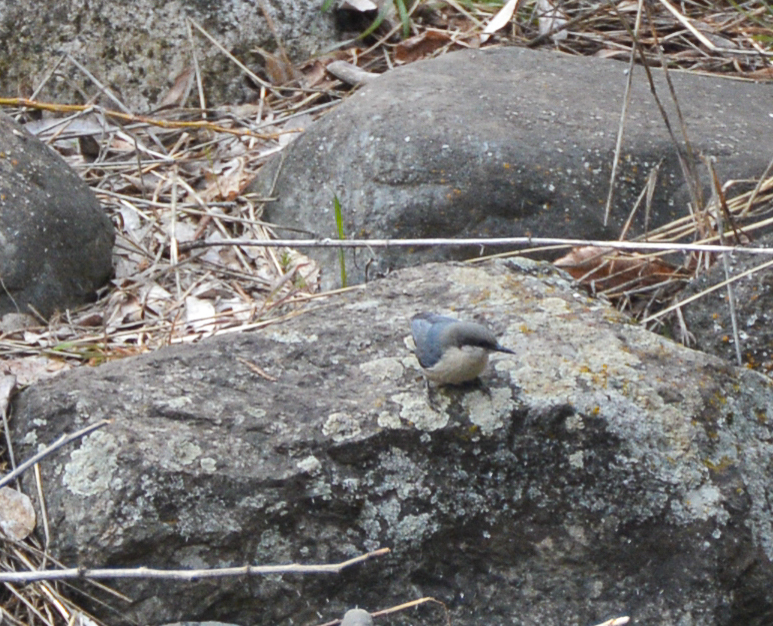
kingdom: Animalia
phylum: Chordata
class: Aves
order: Passeriformes
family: Sittidae
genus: Sitta
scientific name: Sitta pygmaea
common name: Pygmy nuthatch
